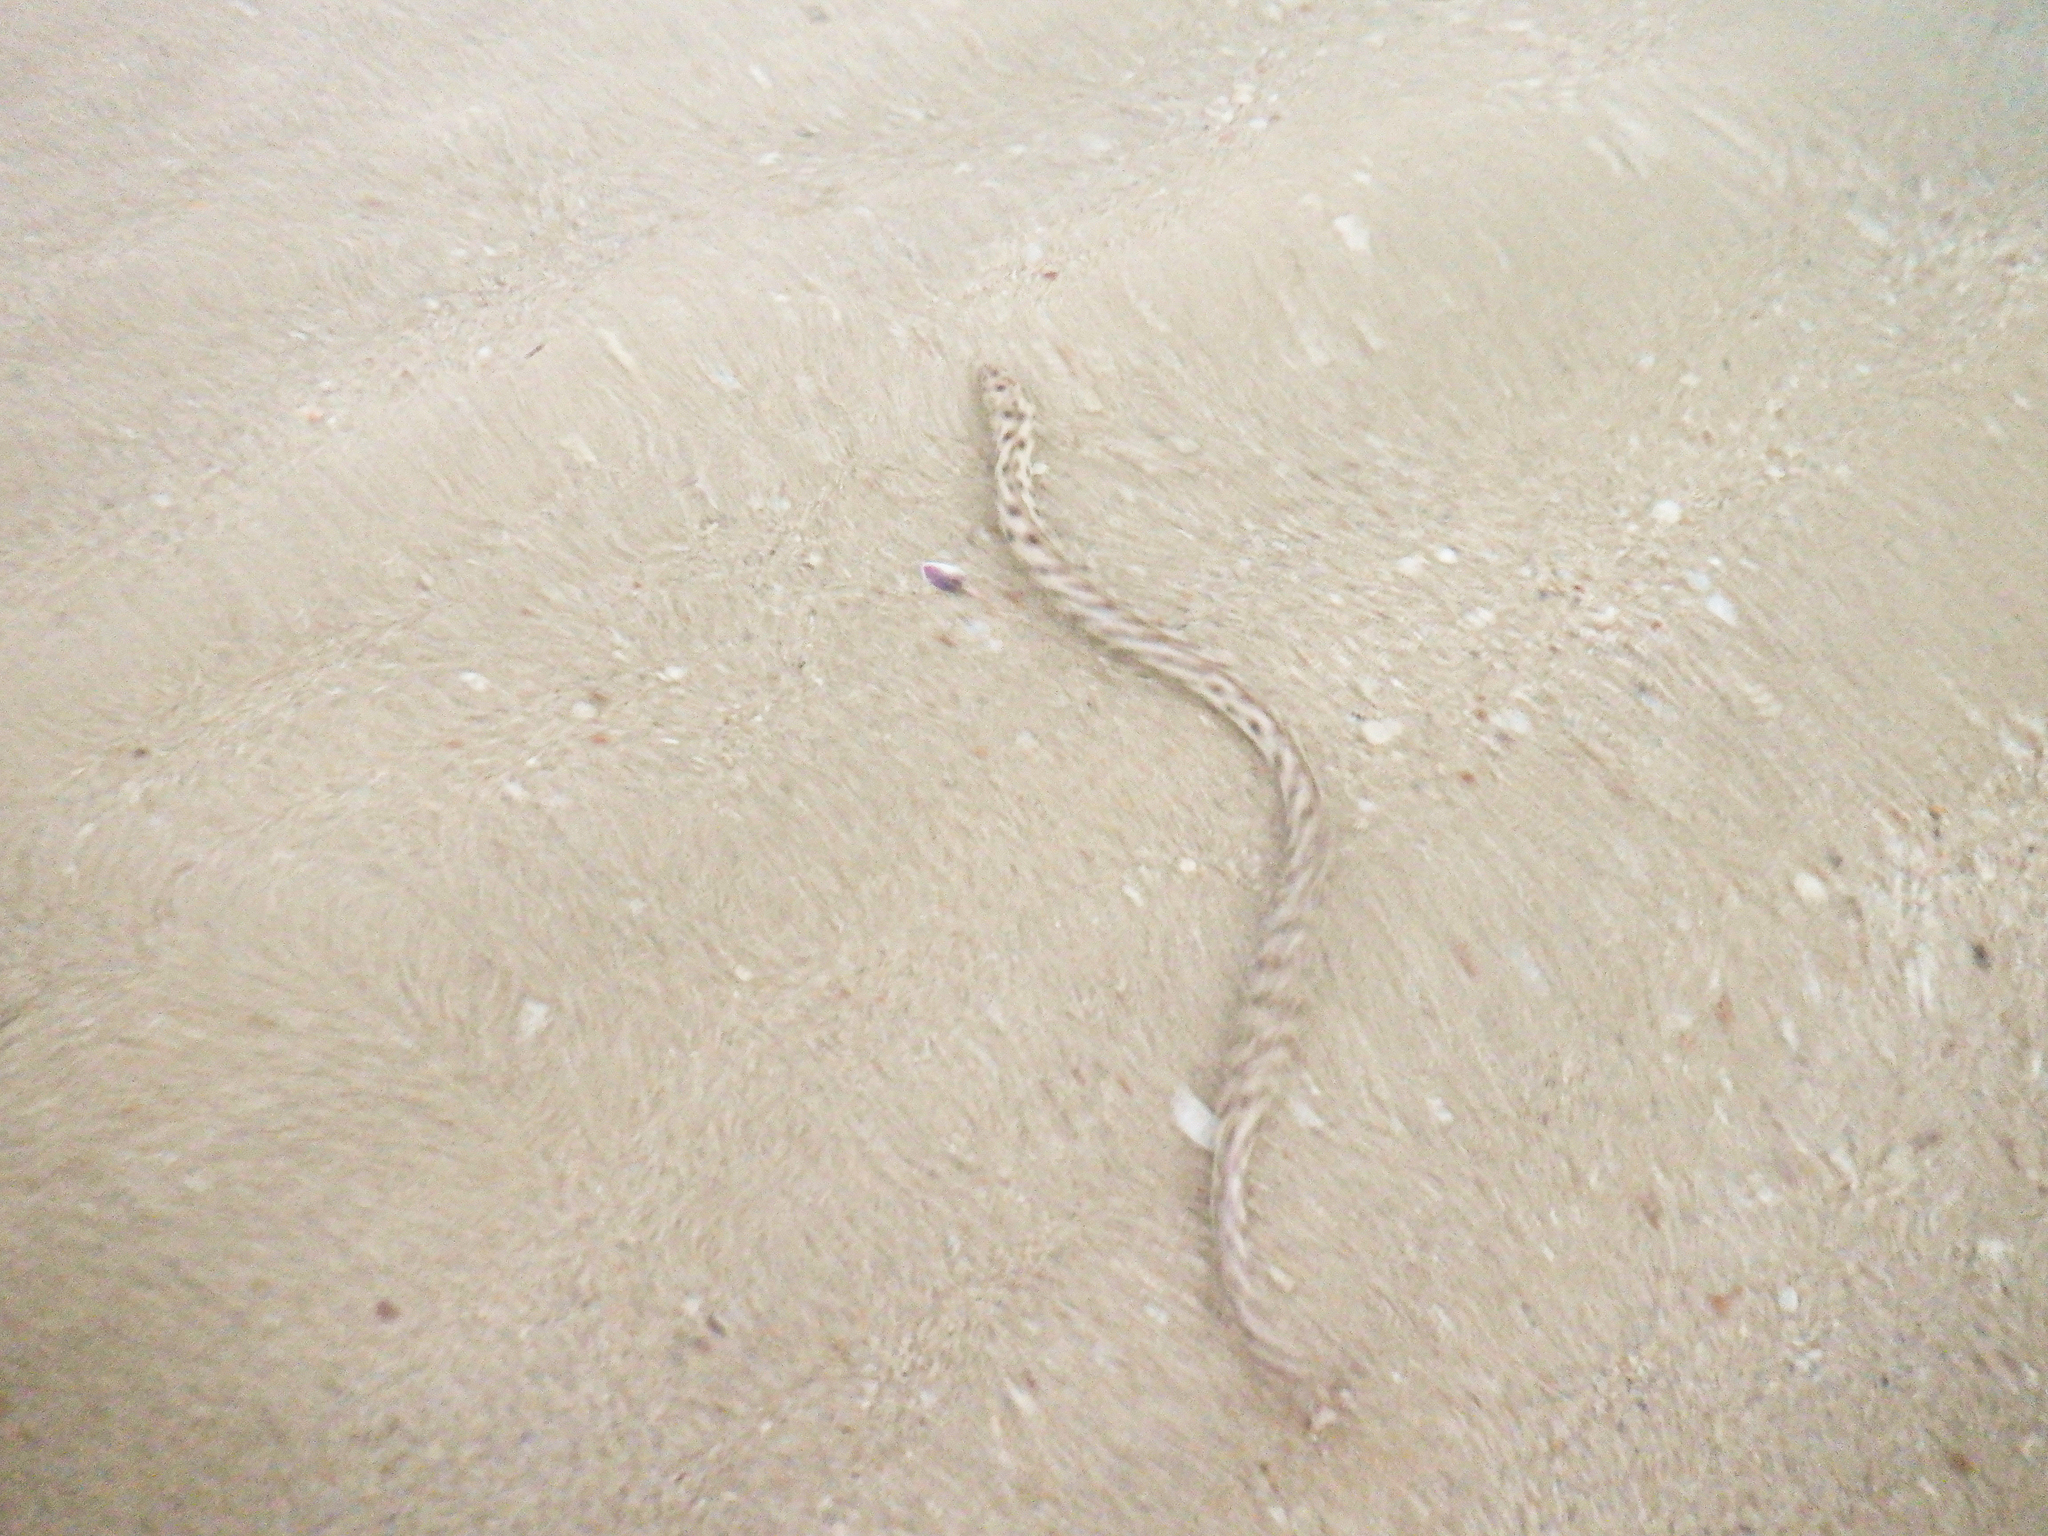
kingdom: Animalia
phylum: Chordata
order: Anguilliformes
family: Ophichthidae
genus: Myrichthys
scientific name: Myrichthys xysturus
